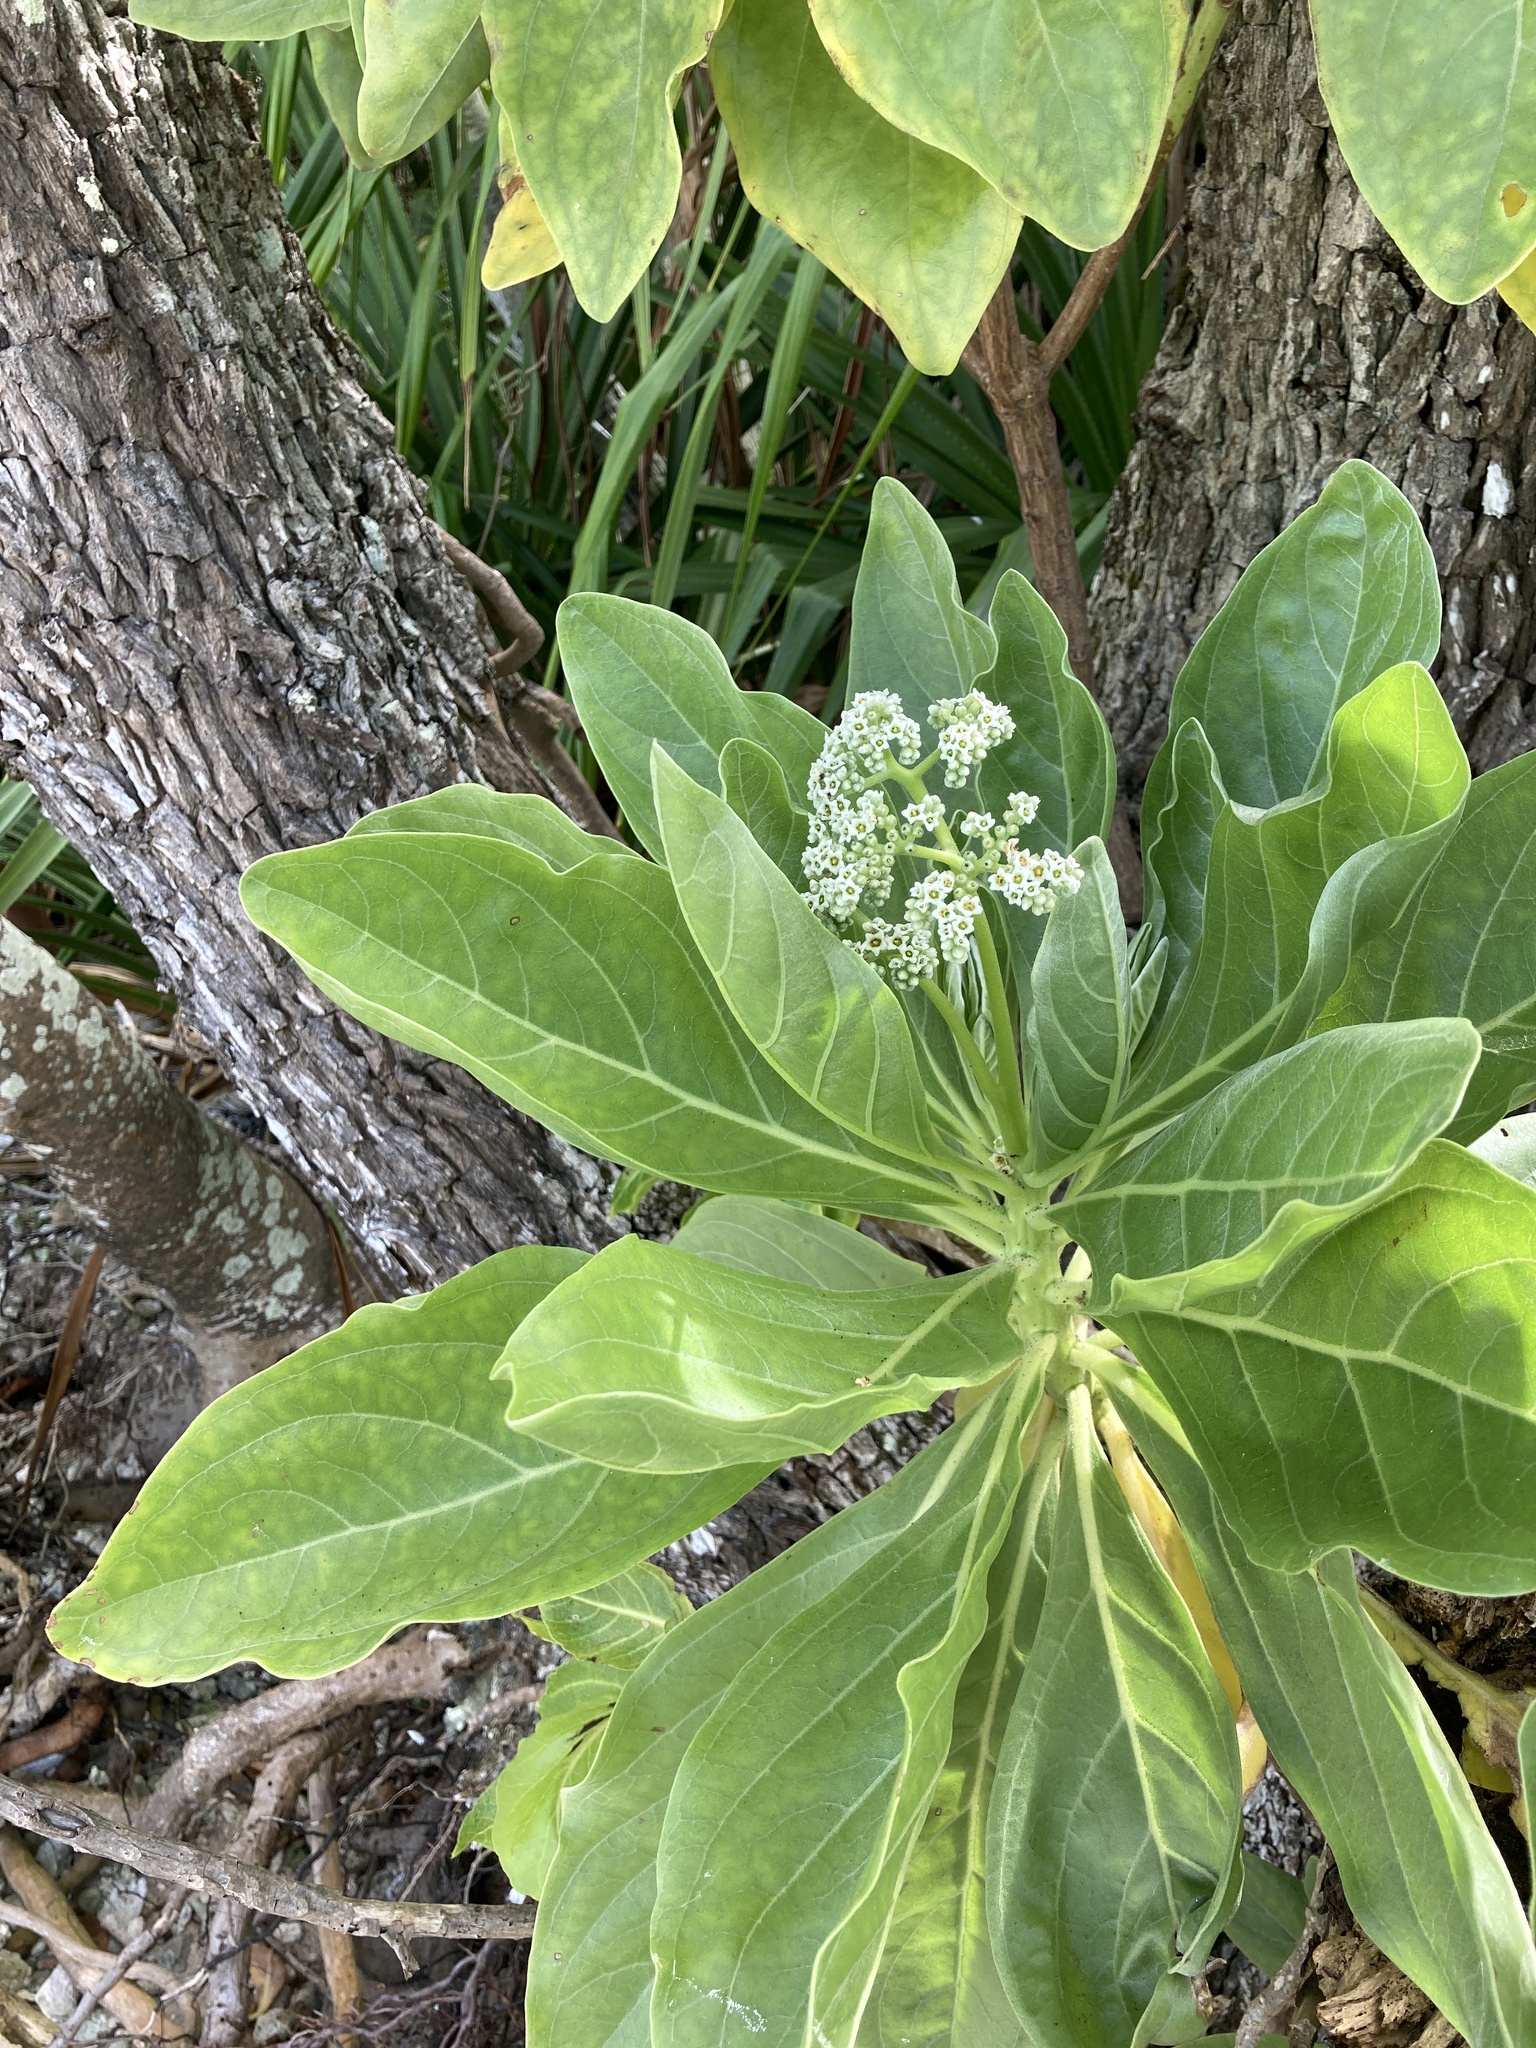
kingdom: Plantae
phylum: Tracheophyta
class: Magnoliopsida
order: Boraginales
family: Heliotropiaceae
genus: Heliotropium
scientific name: Heliotropium velutinum
